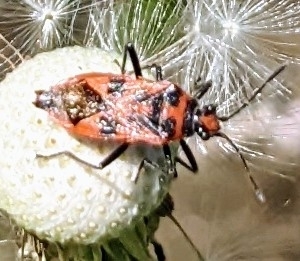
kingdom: Animalia
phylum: Arthropoda
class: Insecta
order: Hemiptera
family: Rhopalidae
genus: Corizus
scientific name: Corizus hyoscyami
